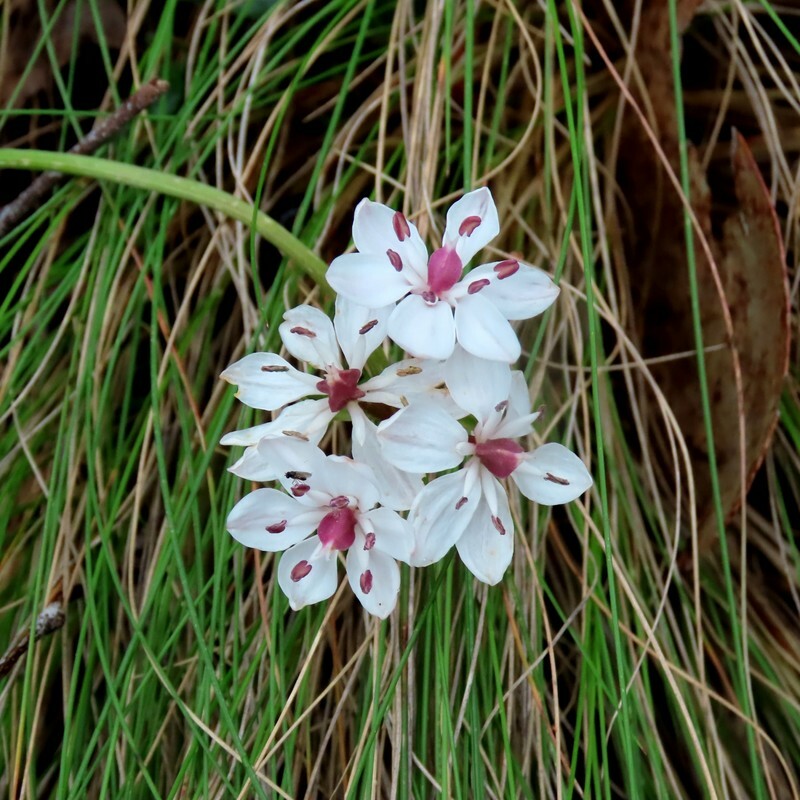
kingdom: Plantae
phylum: Tracheophyta
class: Liliopsida
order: Liliales
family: Colchicaceae
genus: Burchardia
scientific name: Burchardia umbellata
